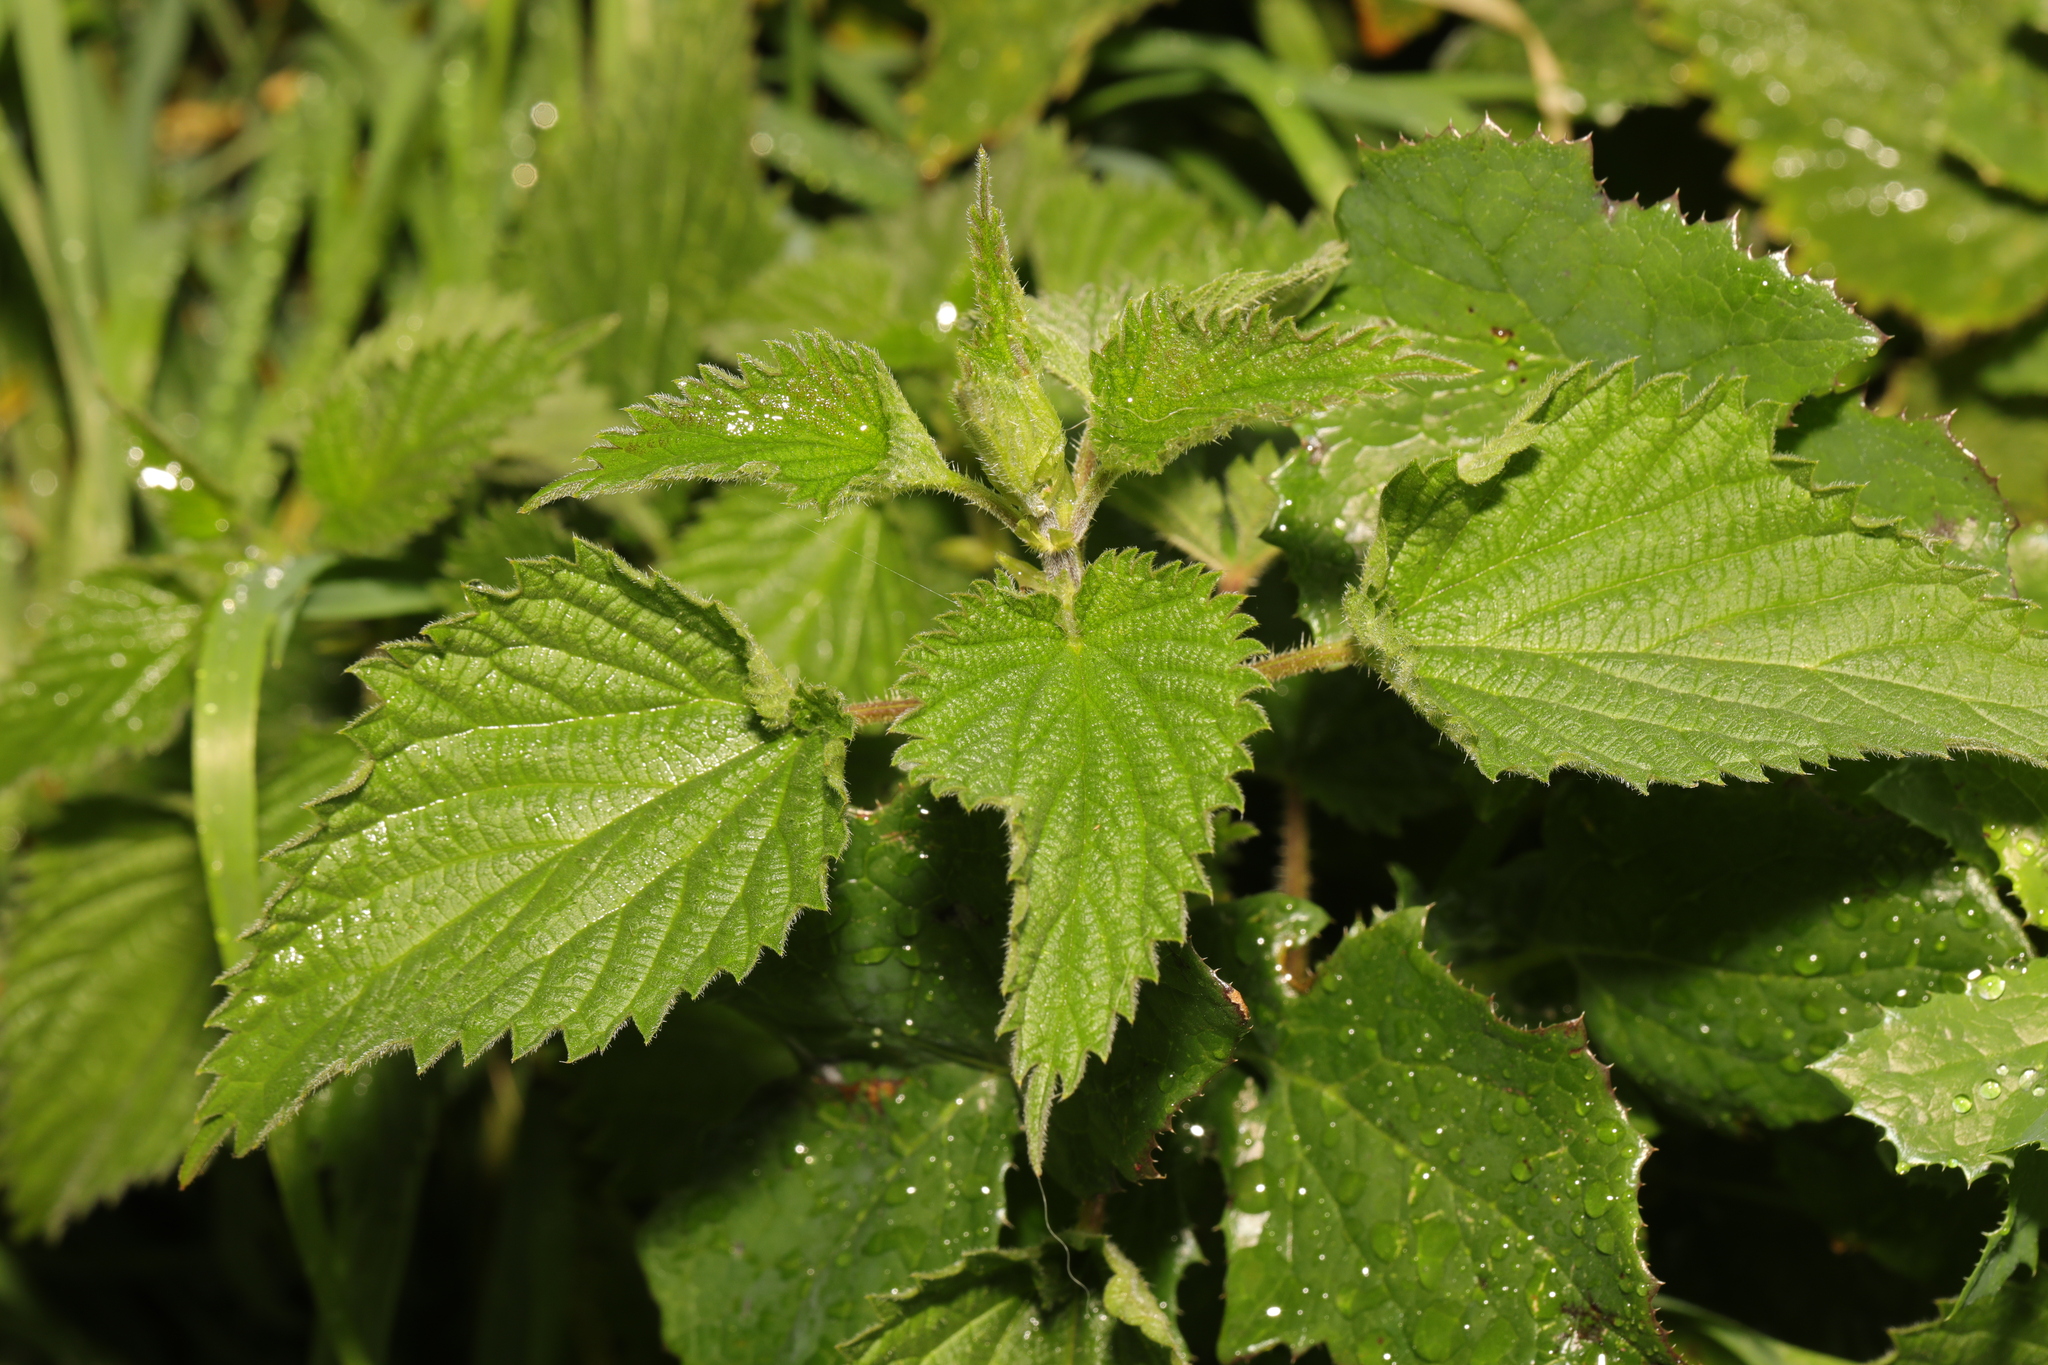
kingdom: Plantae
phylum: Tracheophyta
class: Magnoliopsida
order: Rosales
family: Urticaceae
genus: Urtica
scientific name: Urtica dioica
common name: Common nettle
